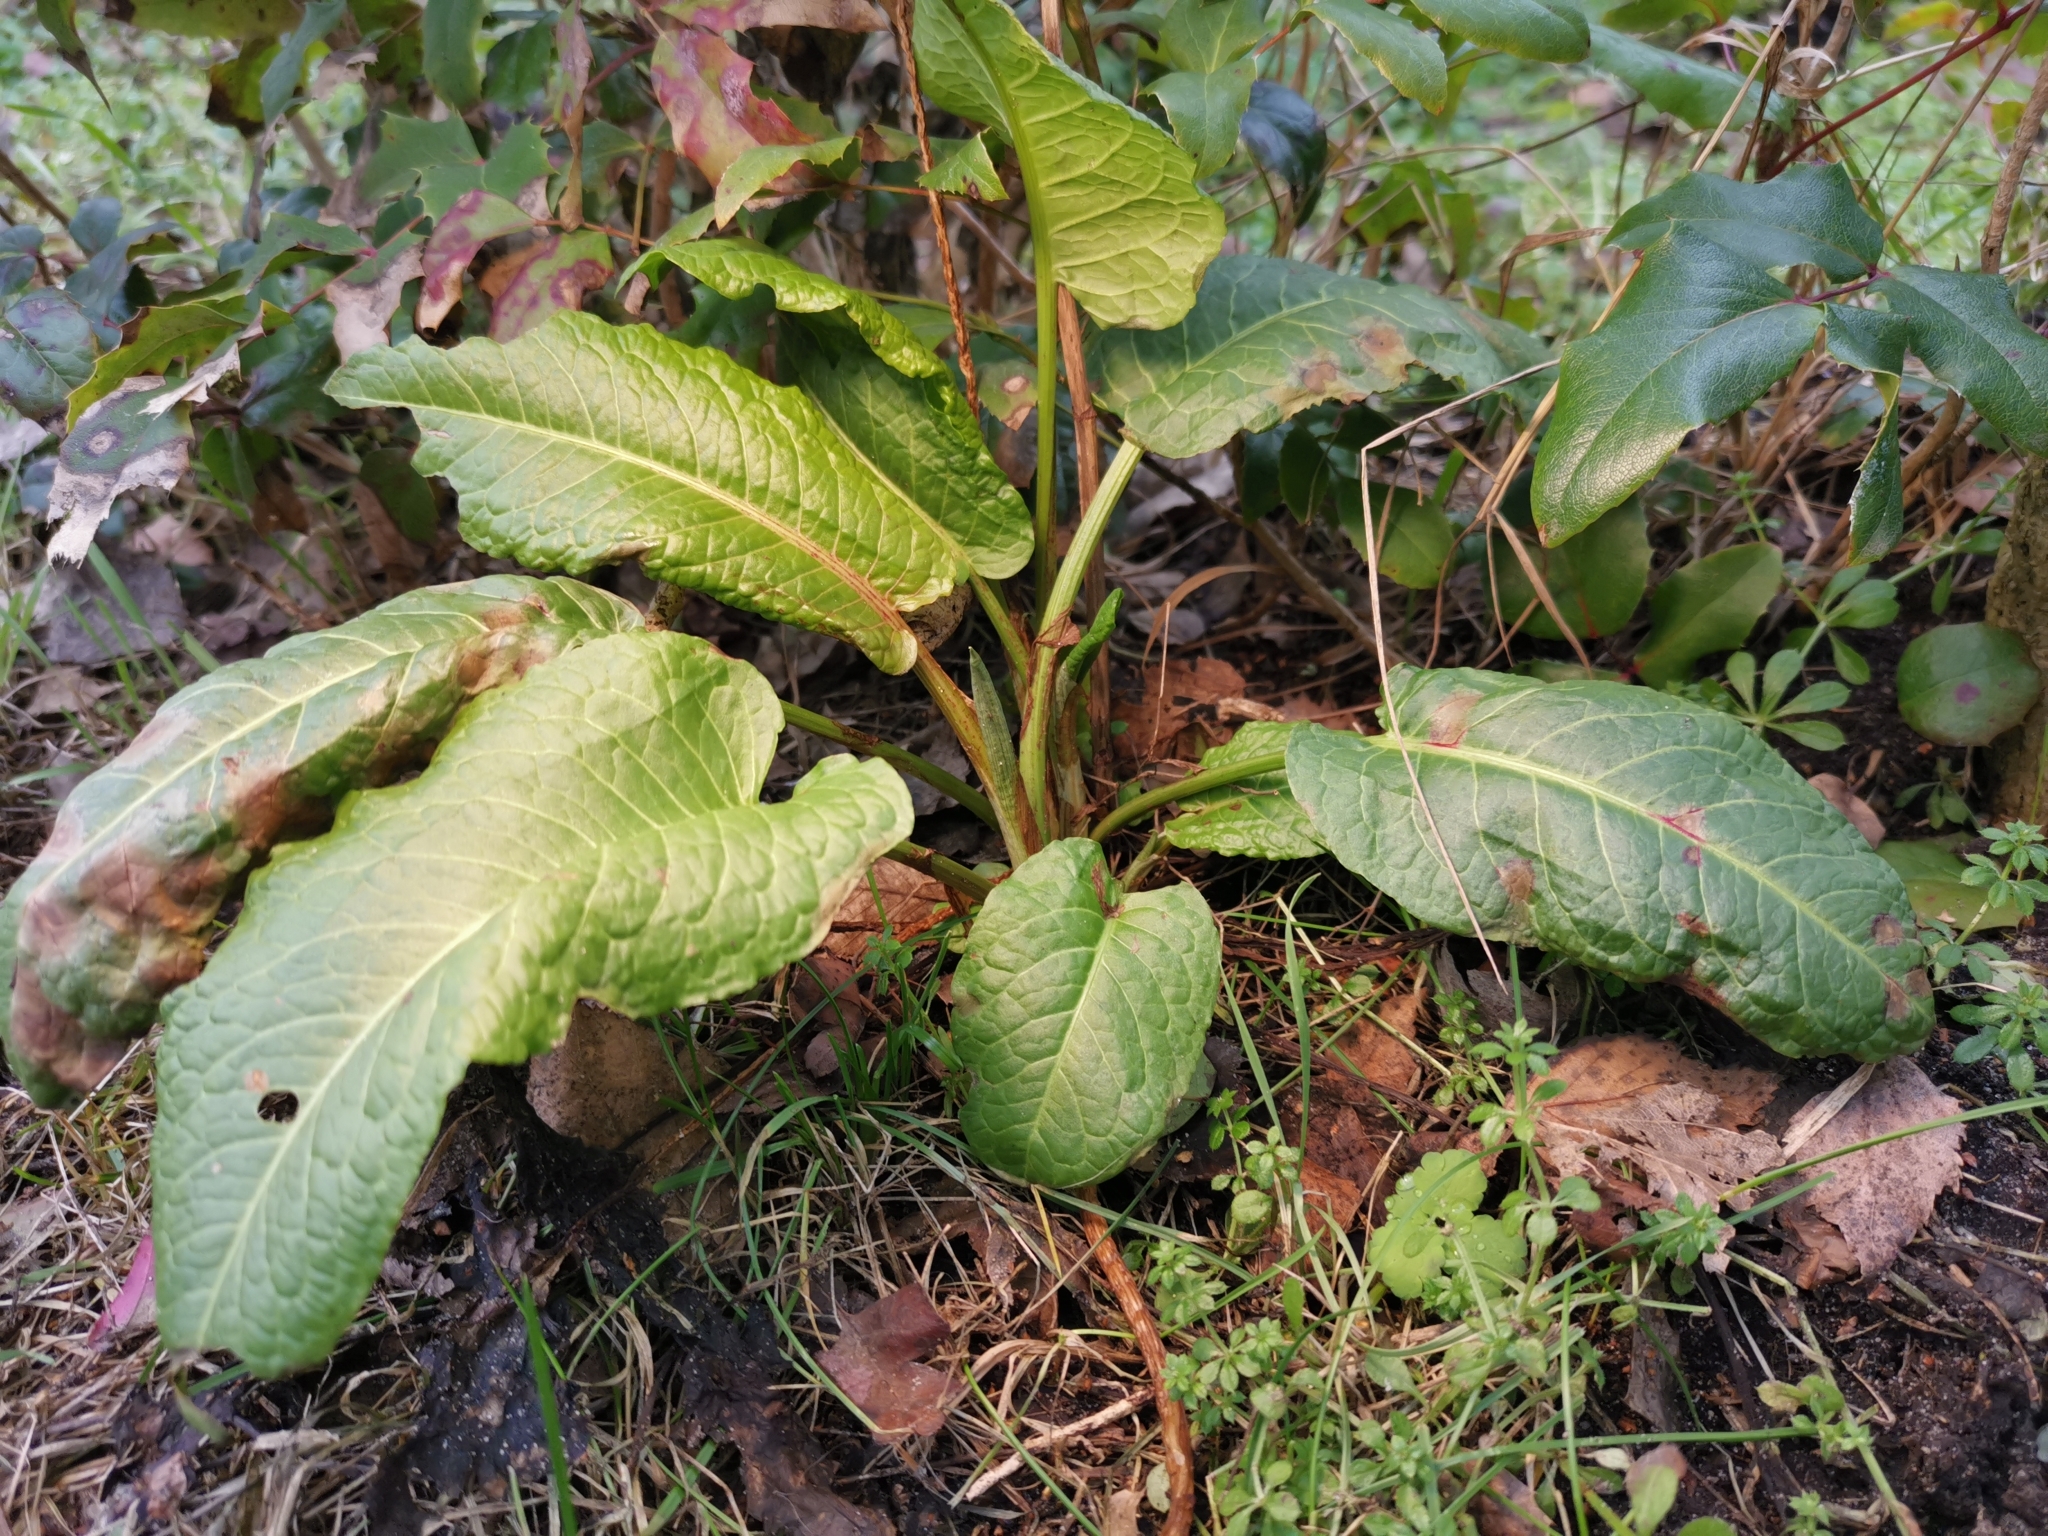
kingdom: Plantae
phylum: Tracheophyta
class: Magnoliopsida
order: Caryophyllales
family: Polygonaceae
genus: Rumex
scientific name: Rumex obtusifolius
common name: Bitter dock
